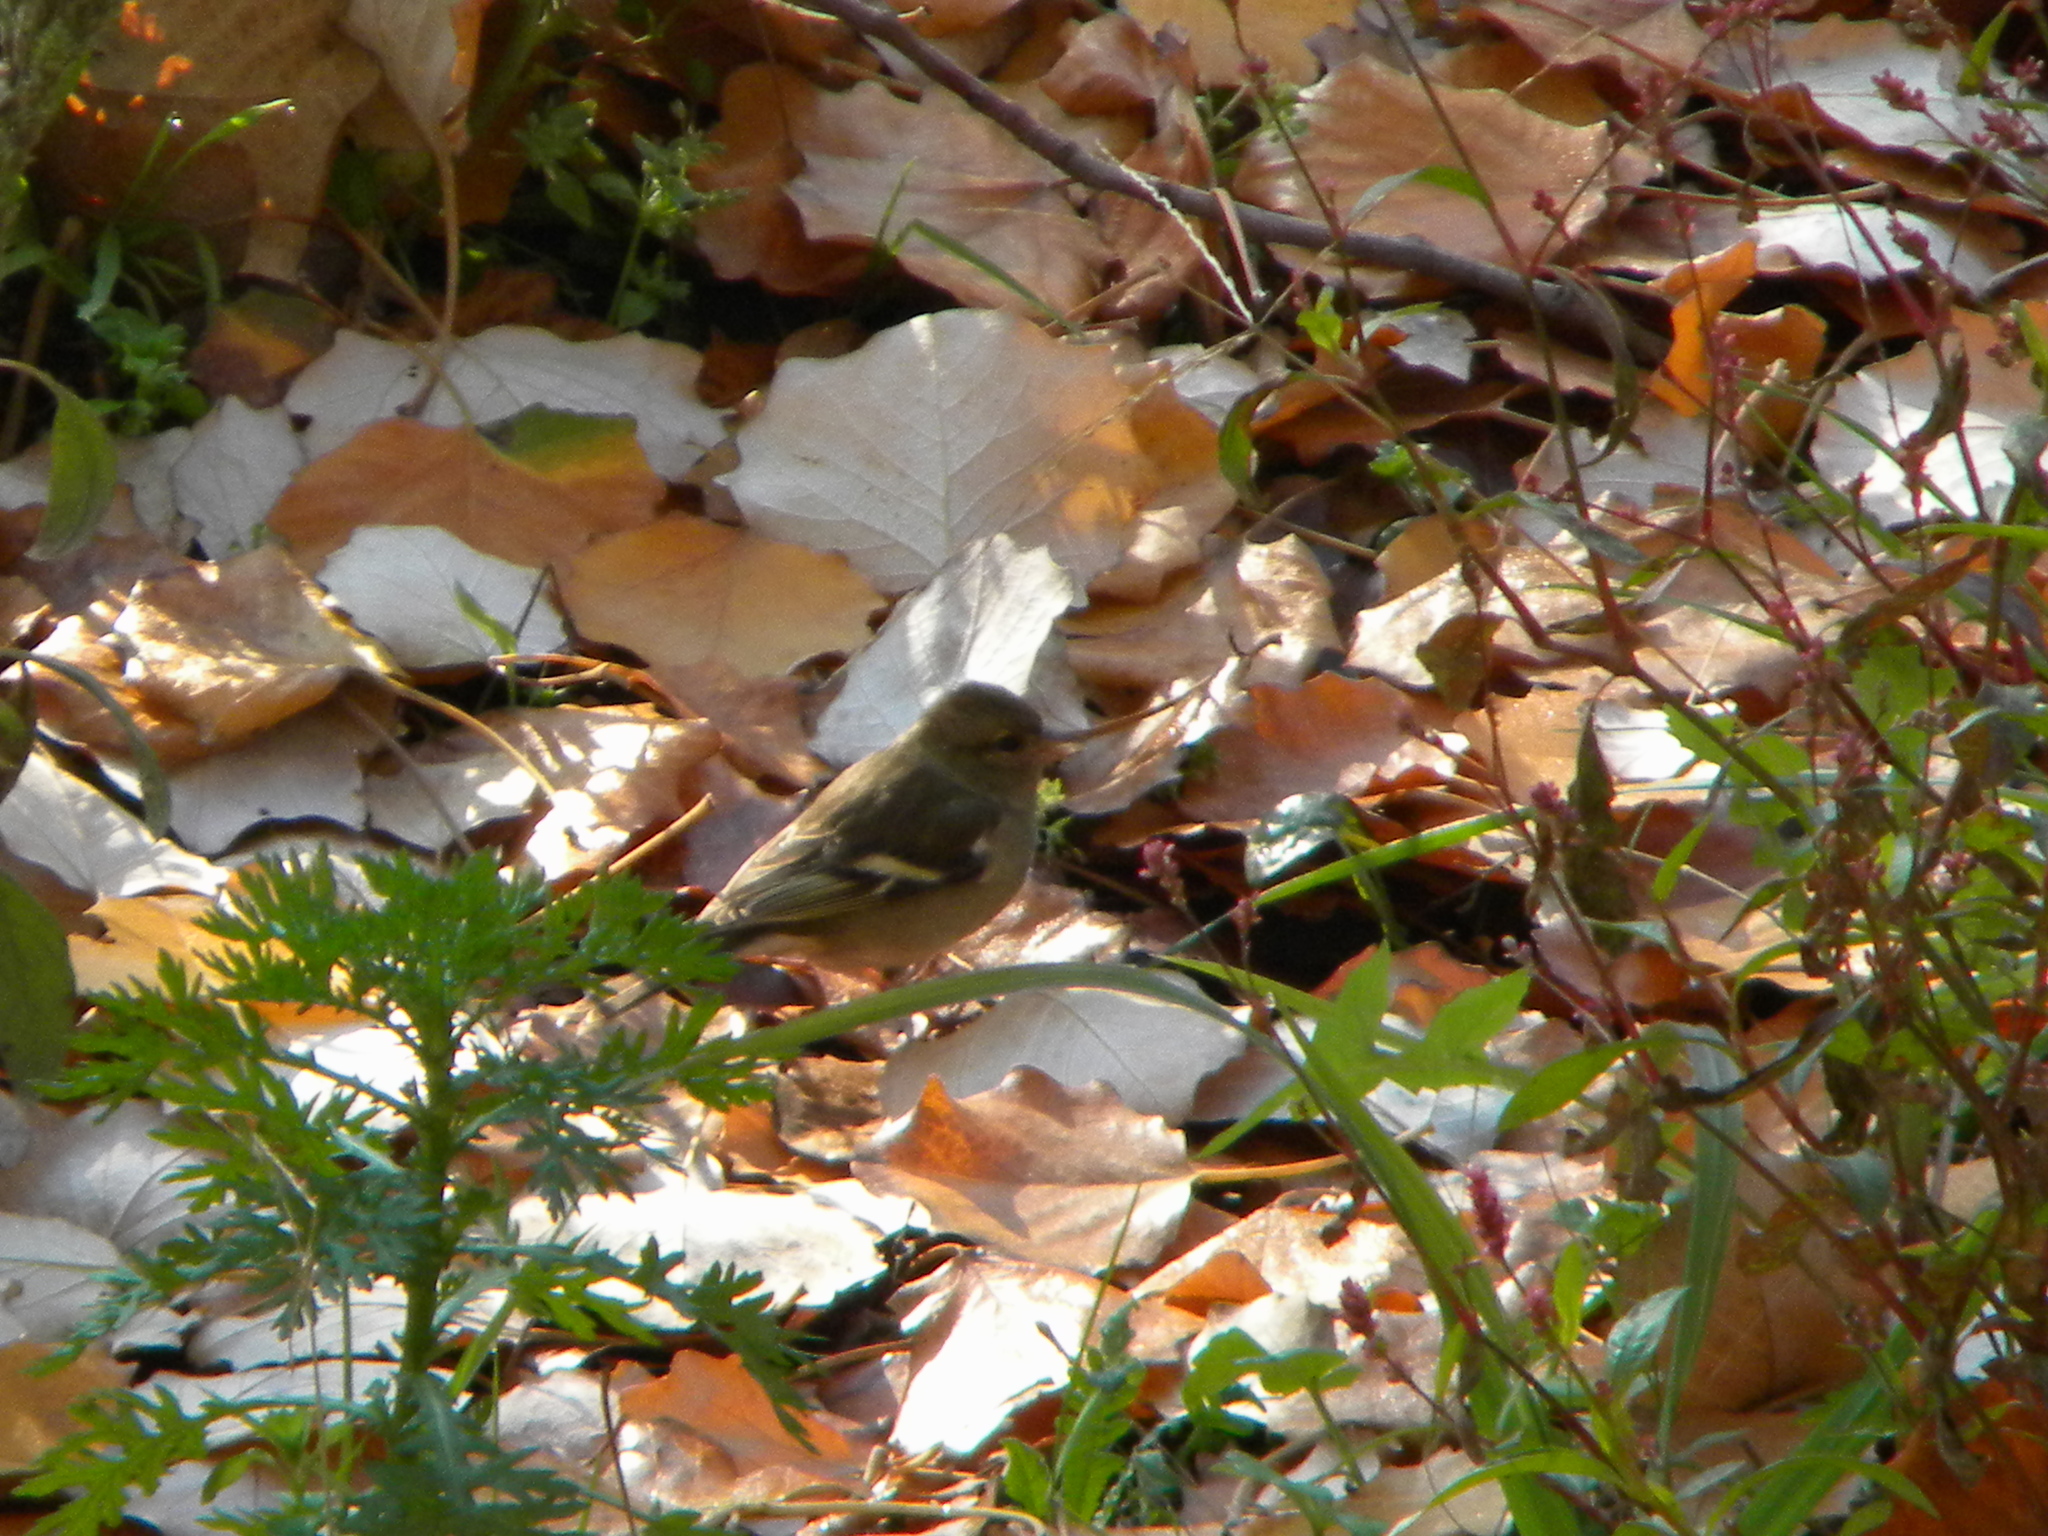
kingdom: Animalia
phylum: Chordata
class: Aves
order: Passeriformes
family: Fringillidae
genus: Fringilla
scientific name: Fringilla coelebs
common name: Common chaffinch
